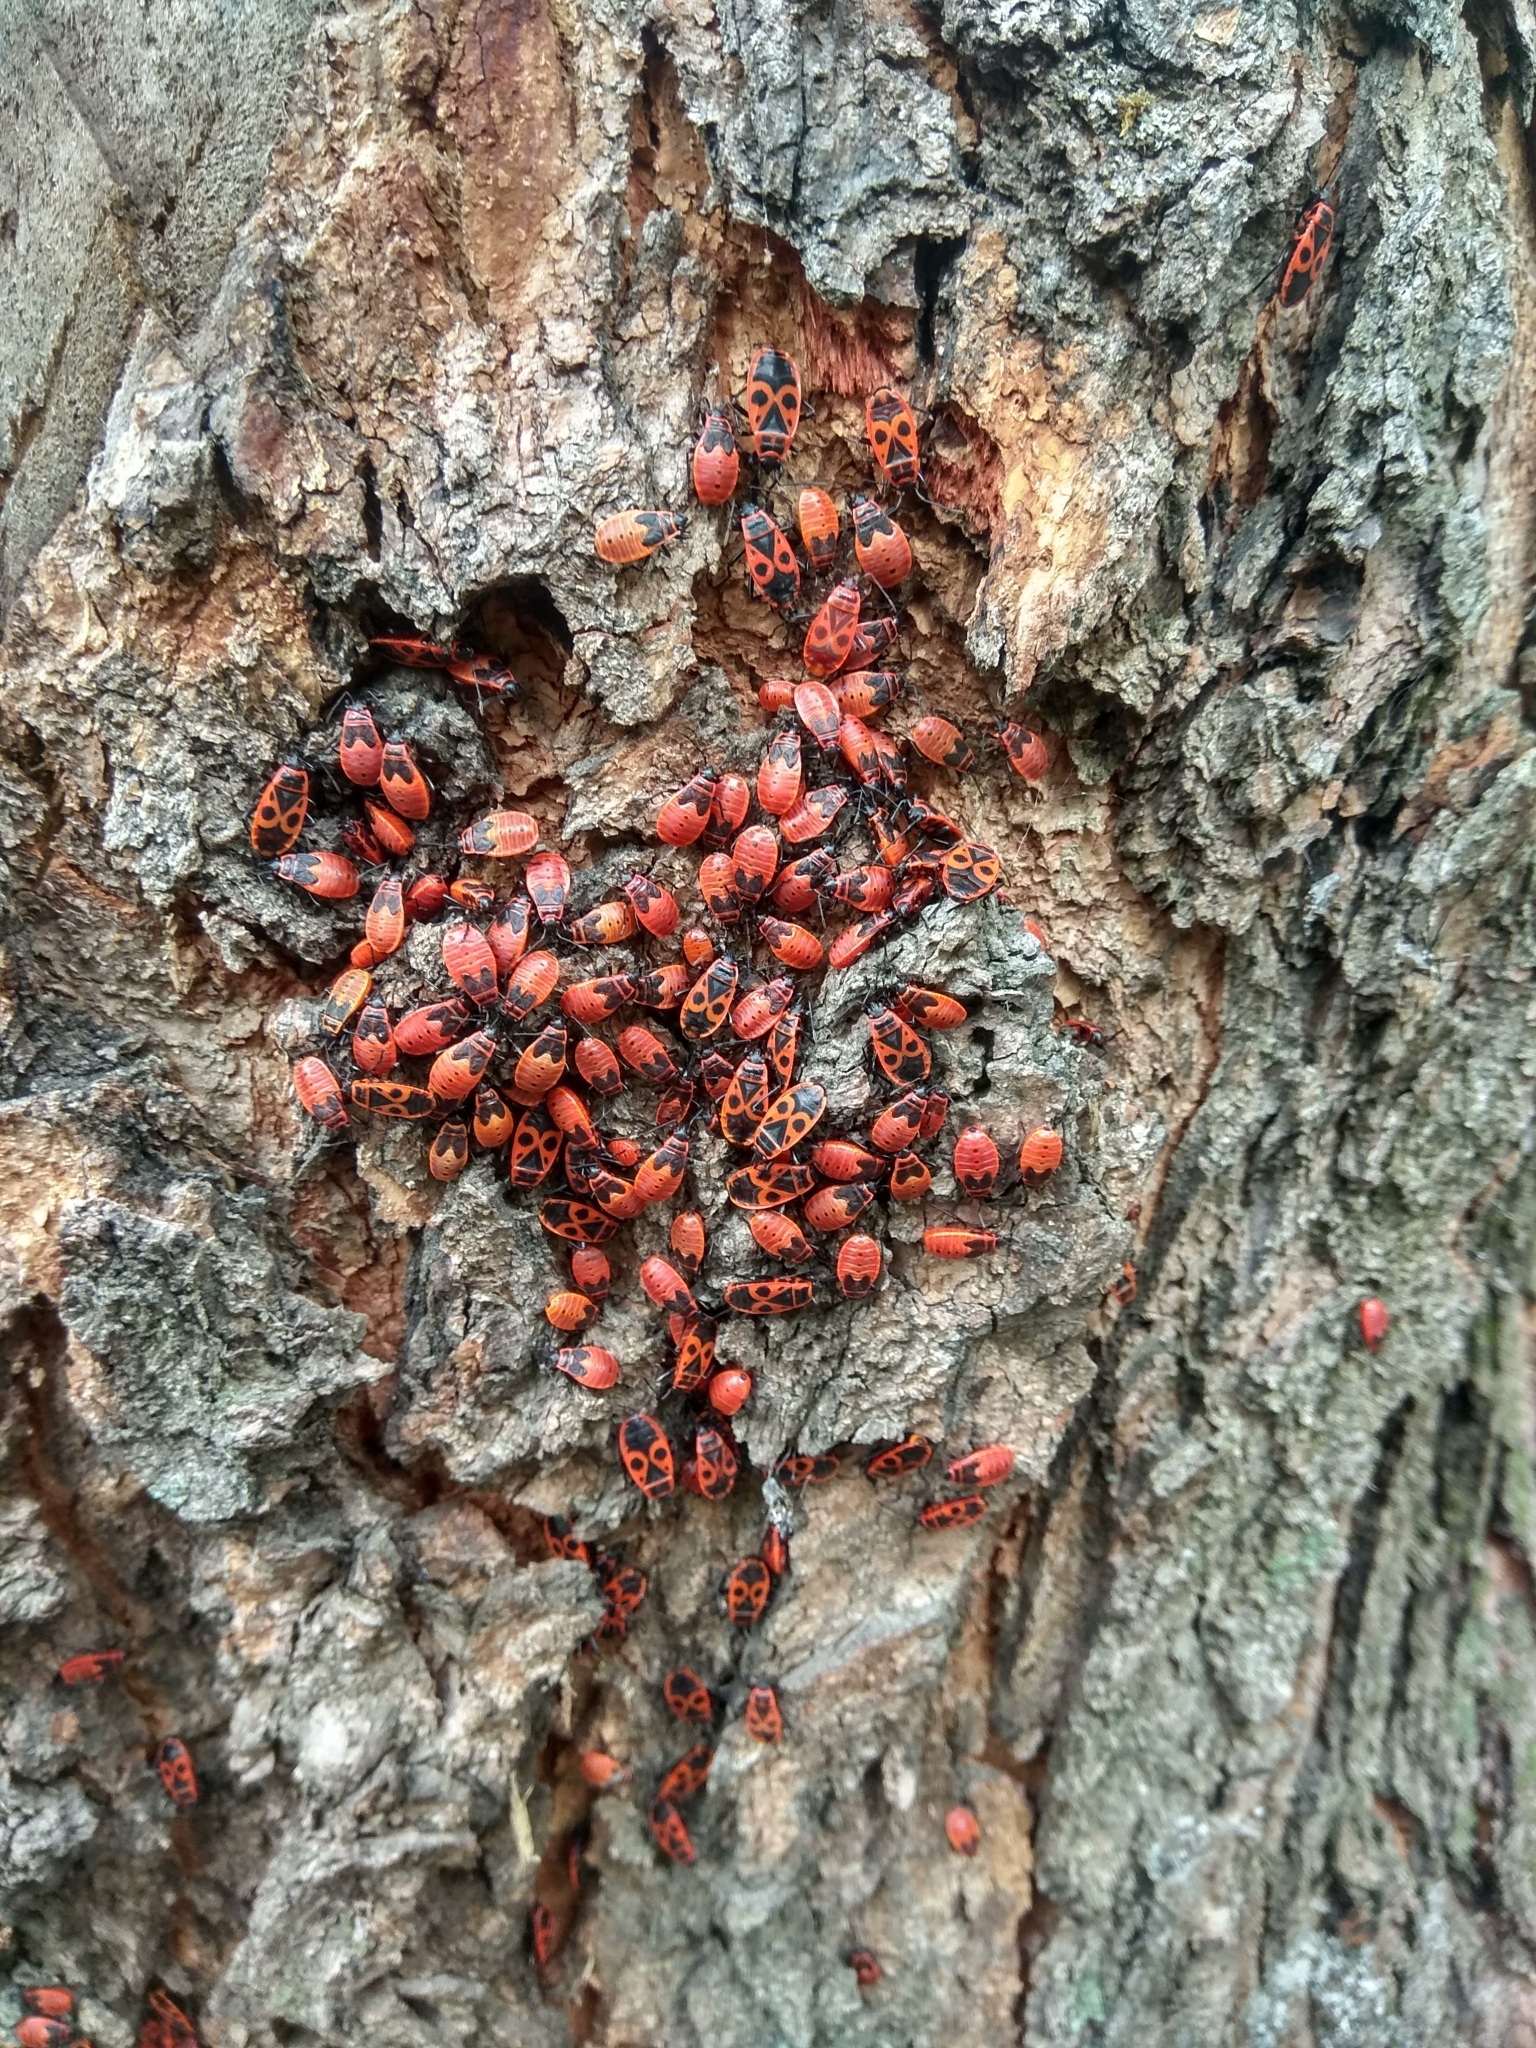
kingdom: Animalia
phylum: Arthropoda
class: Insecta
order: Hemiptera
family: Pyrrhocoridae
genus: Pyrrhocoris
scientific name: Pyrrhocoris apterus
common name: Firebug
